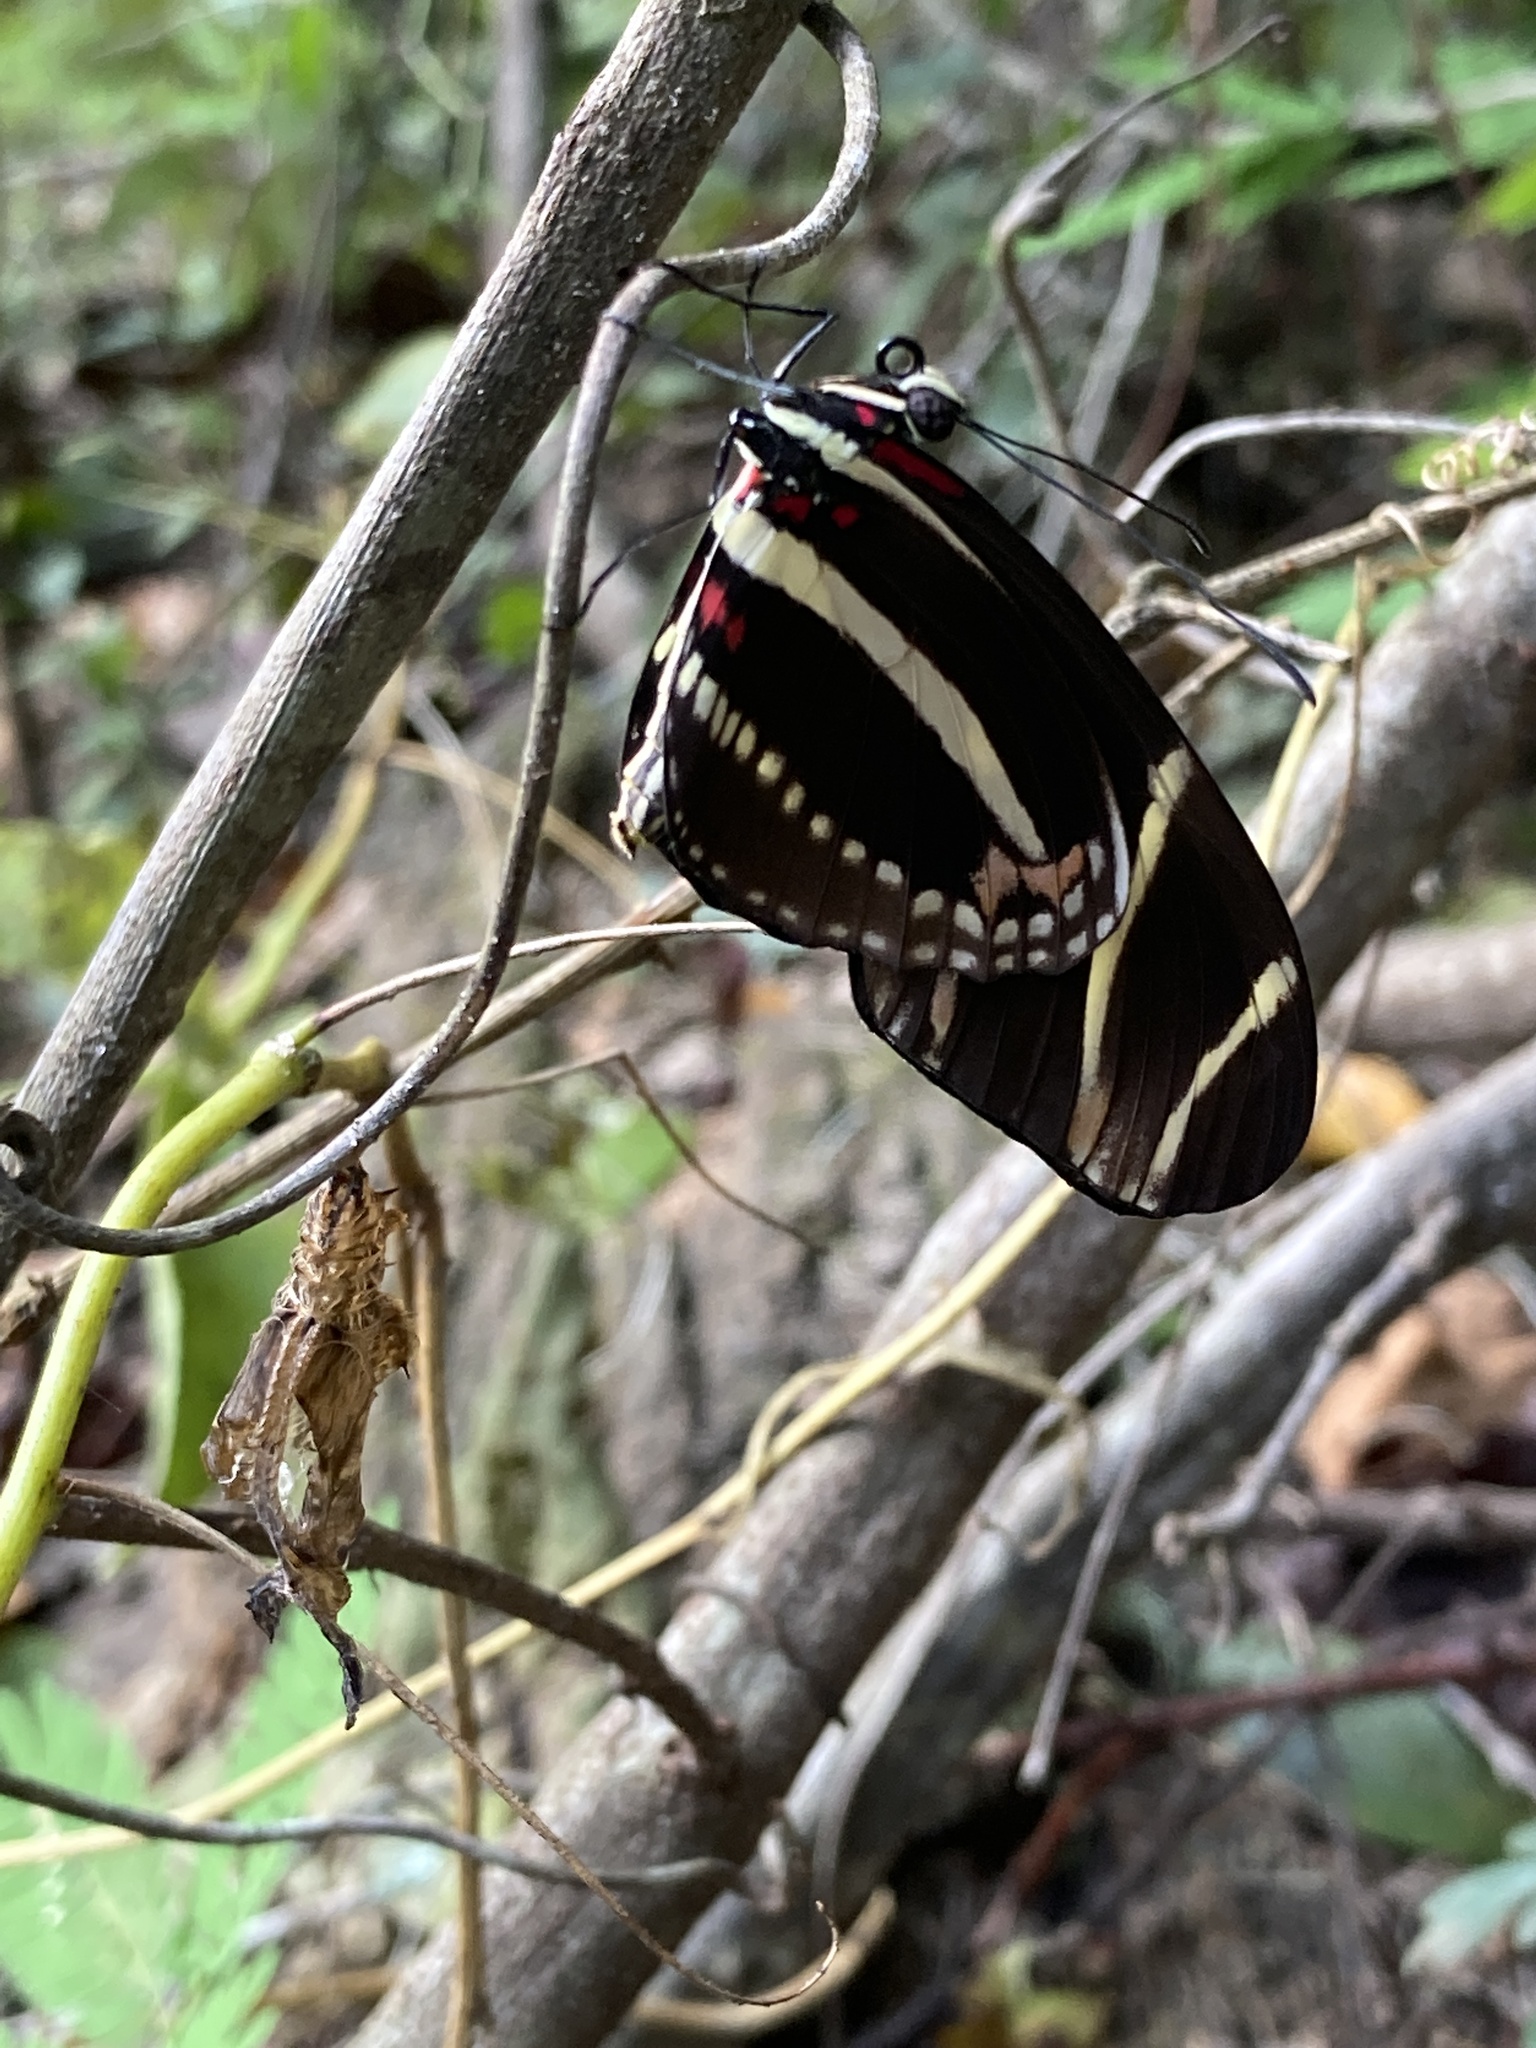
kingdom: Animalia
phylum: Arthropoda
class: Insecta
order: Lepidoptera
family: Nymphalidae
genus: Heliconius
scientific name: Heliconius charithonia
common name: Zebra long wing
